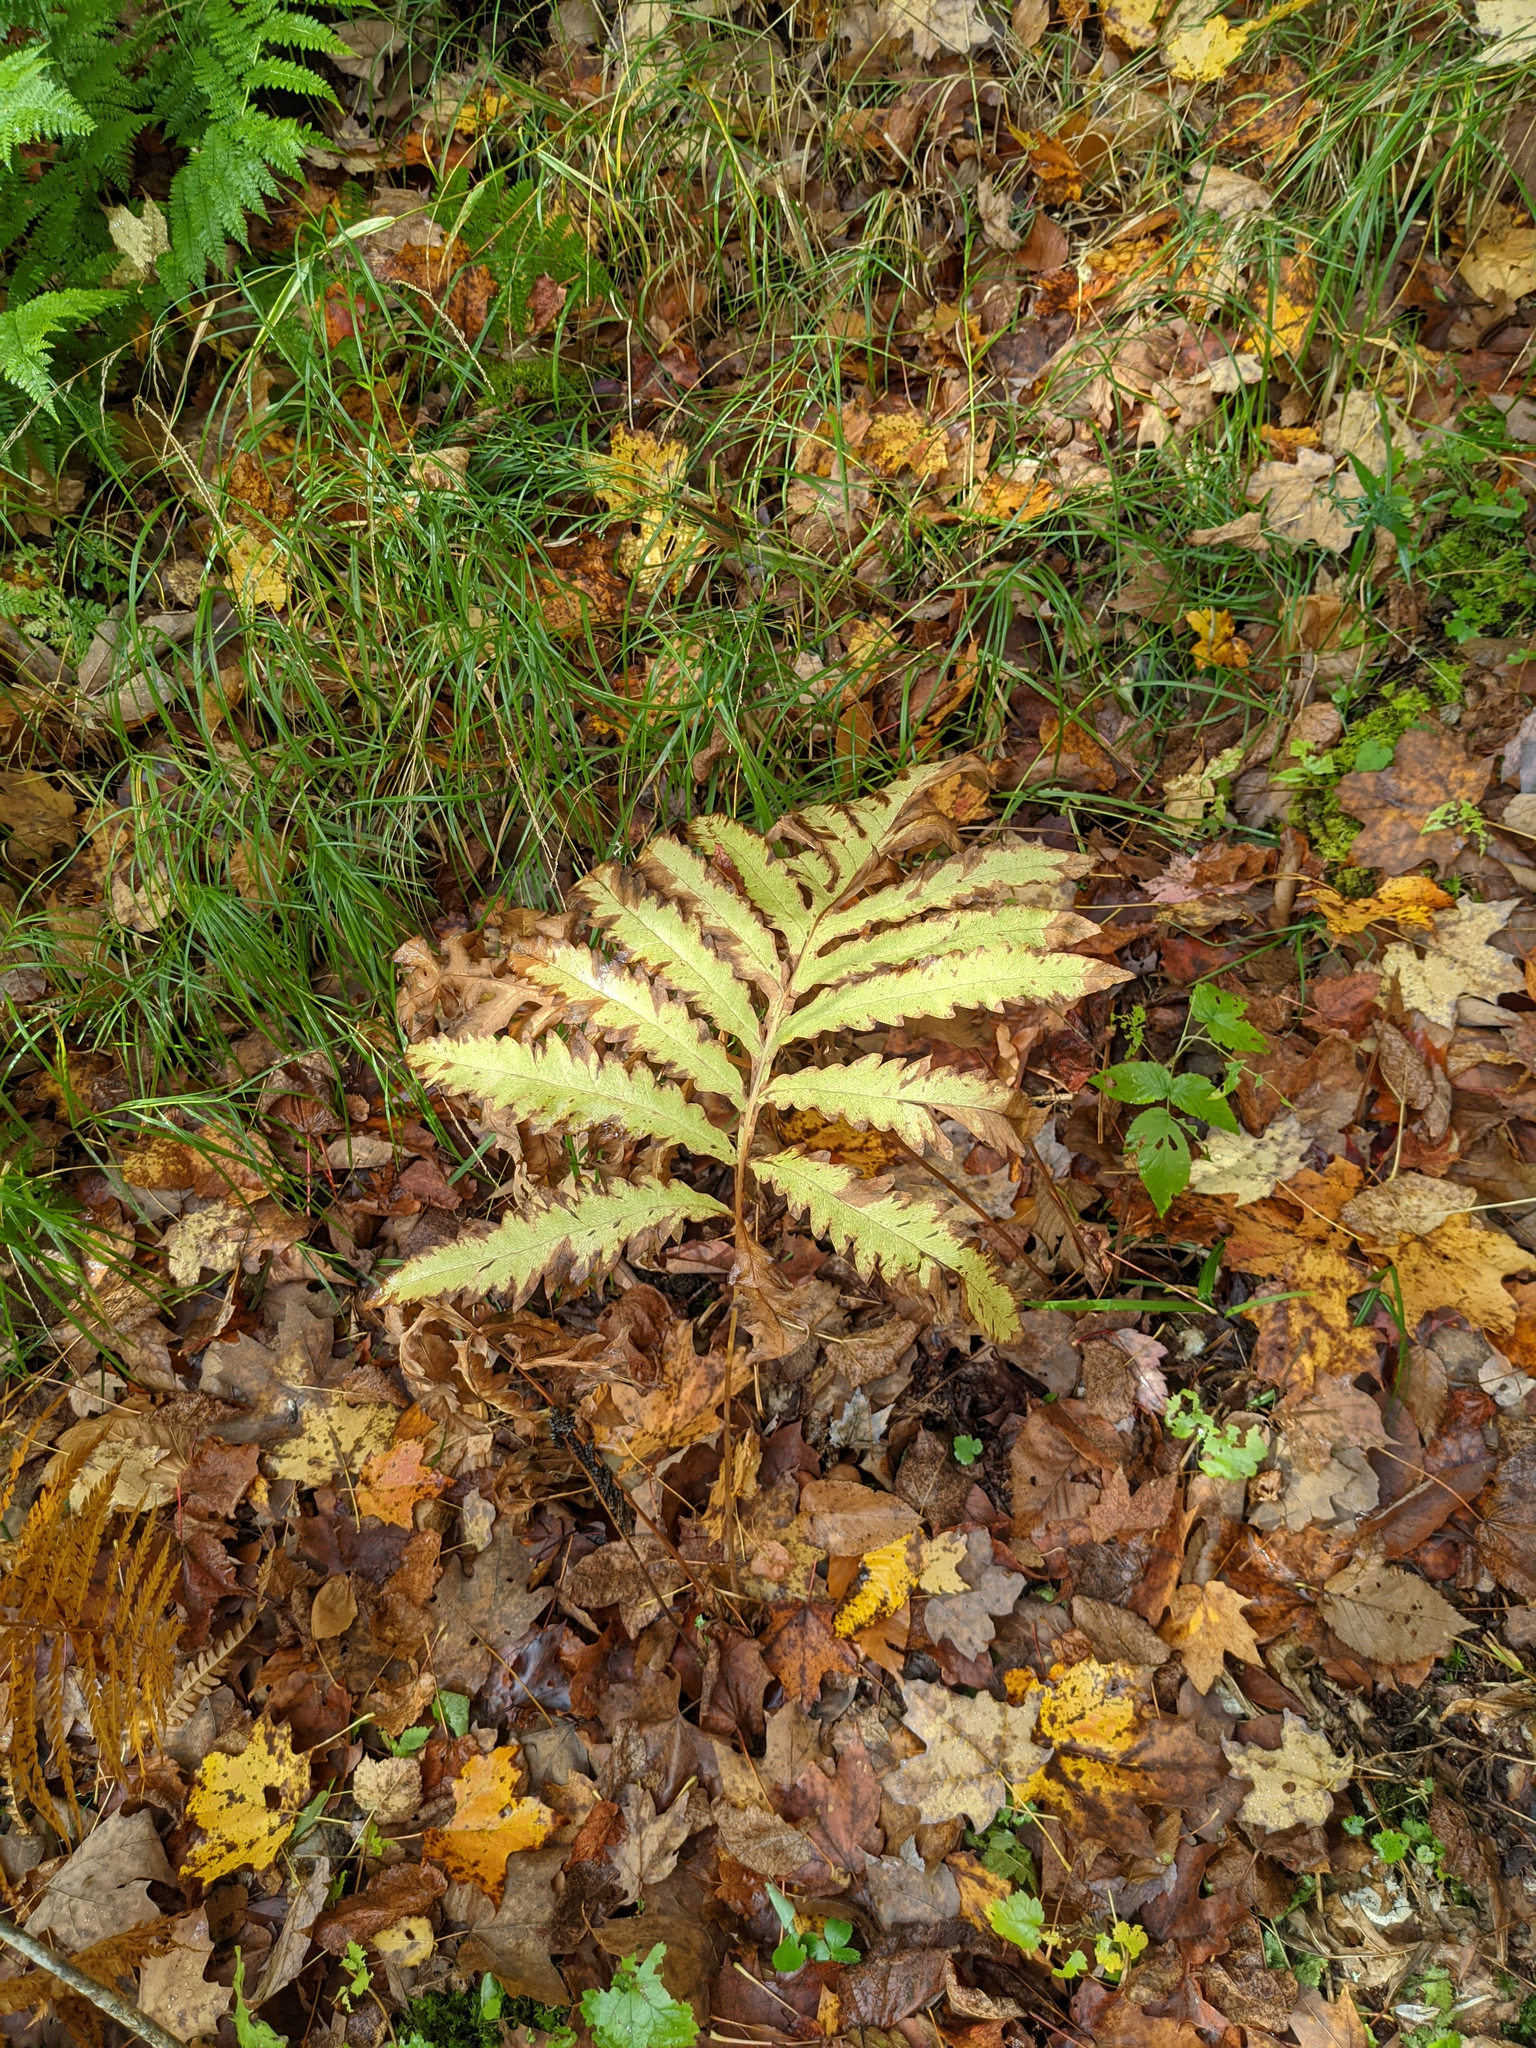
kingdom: Plantae
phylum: Tracheophyta
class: Polypodiopsida
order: Polypodiales
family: Onocleaceae
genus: Onoclea
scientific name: Onoclea sensibilis
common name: Sensitive fern
